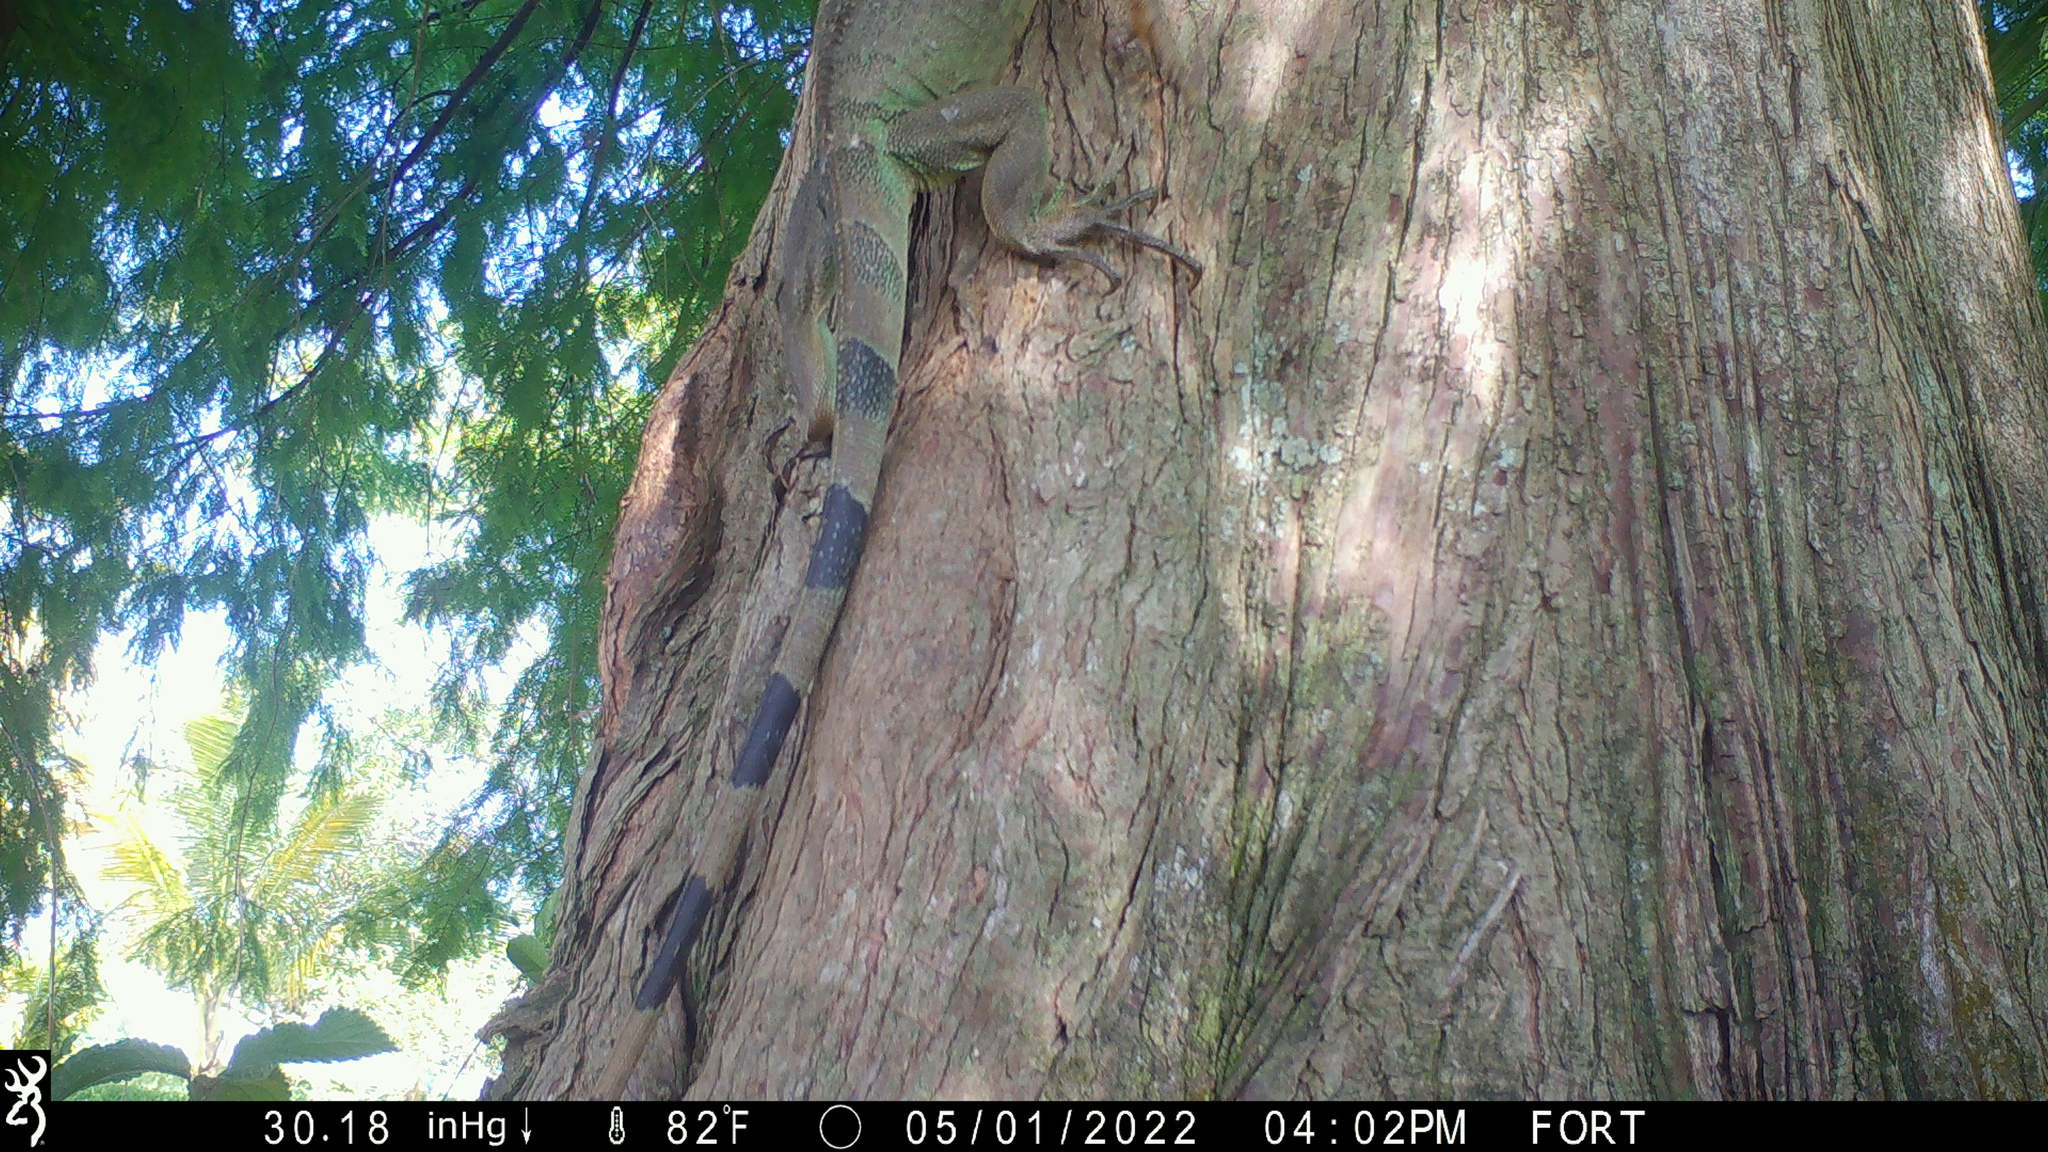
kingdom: Animalia
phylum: Chordata
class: Squamata
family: Iguanidae
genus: Iguana
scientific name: Iguana iguana
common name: Green iguana
